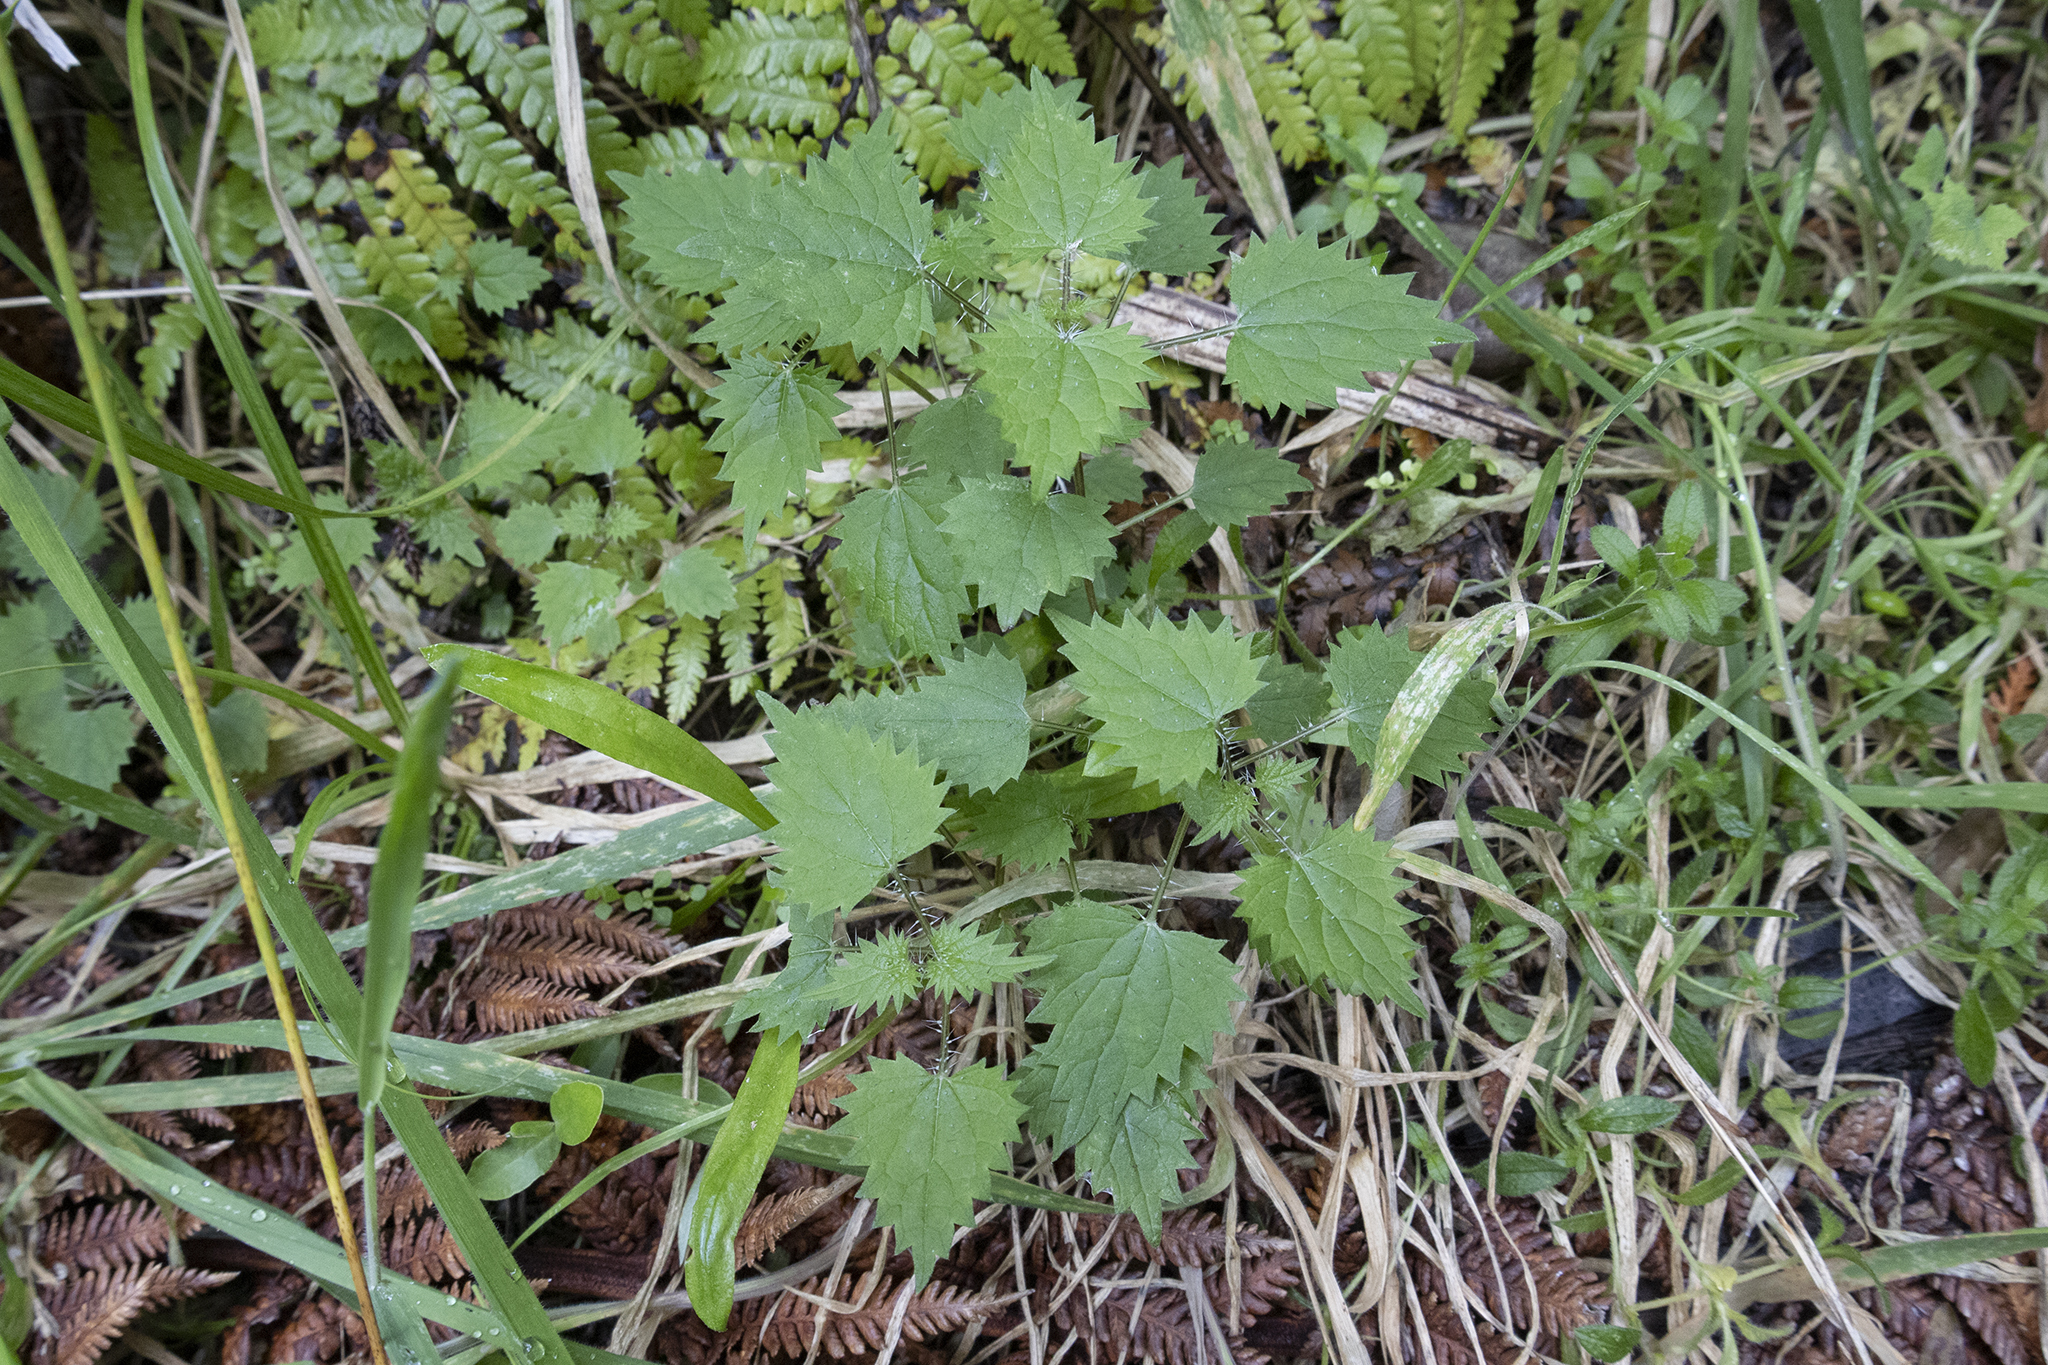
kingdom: Plantae
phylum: Tracheophyta
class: Magnoliopsida
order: Rosales
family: Urticaceae
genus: Urtica
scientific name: Urtica sykesii
